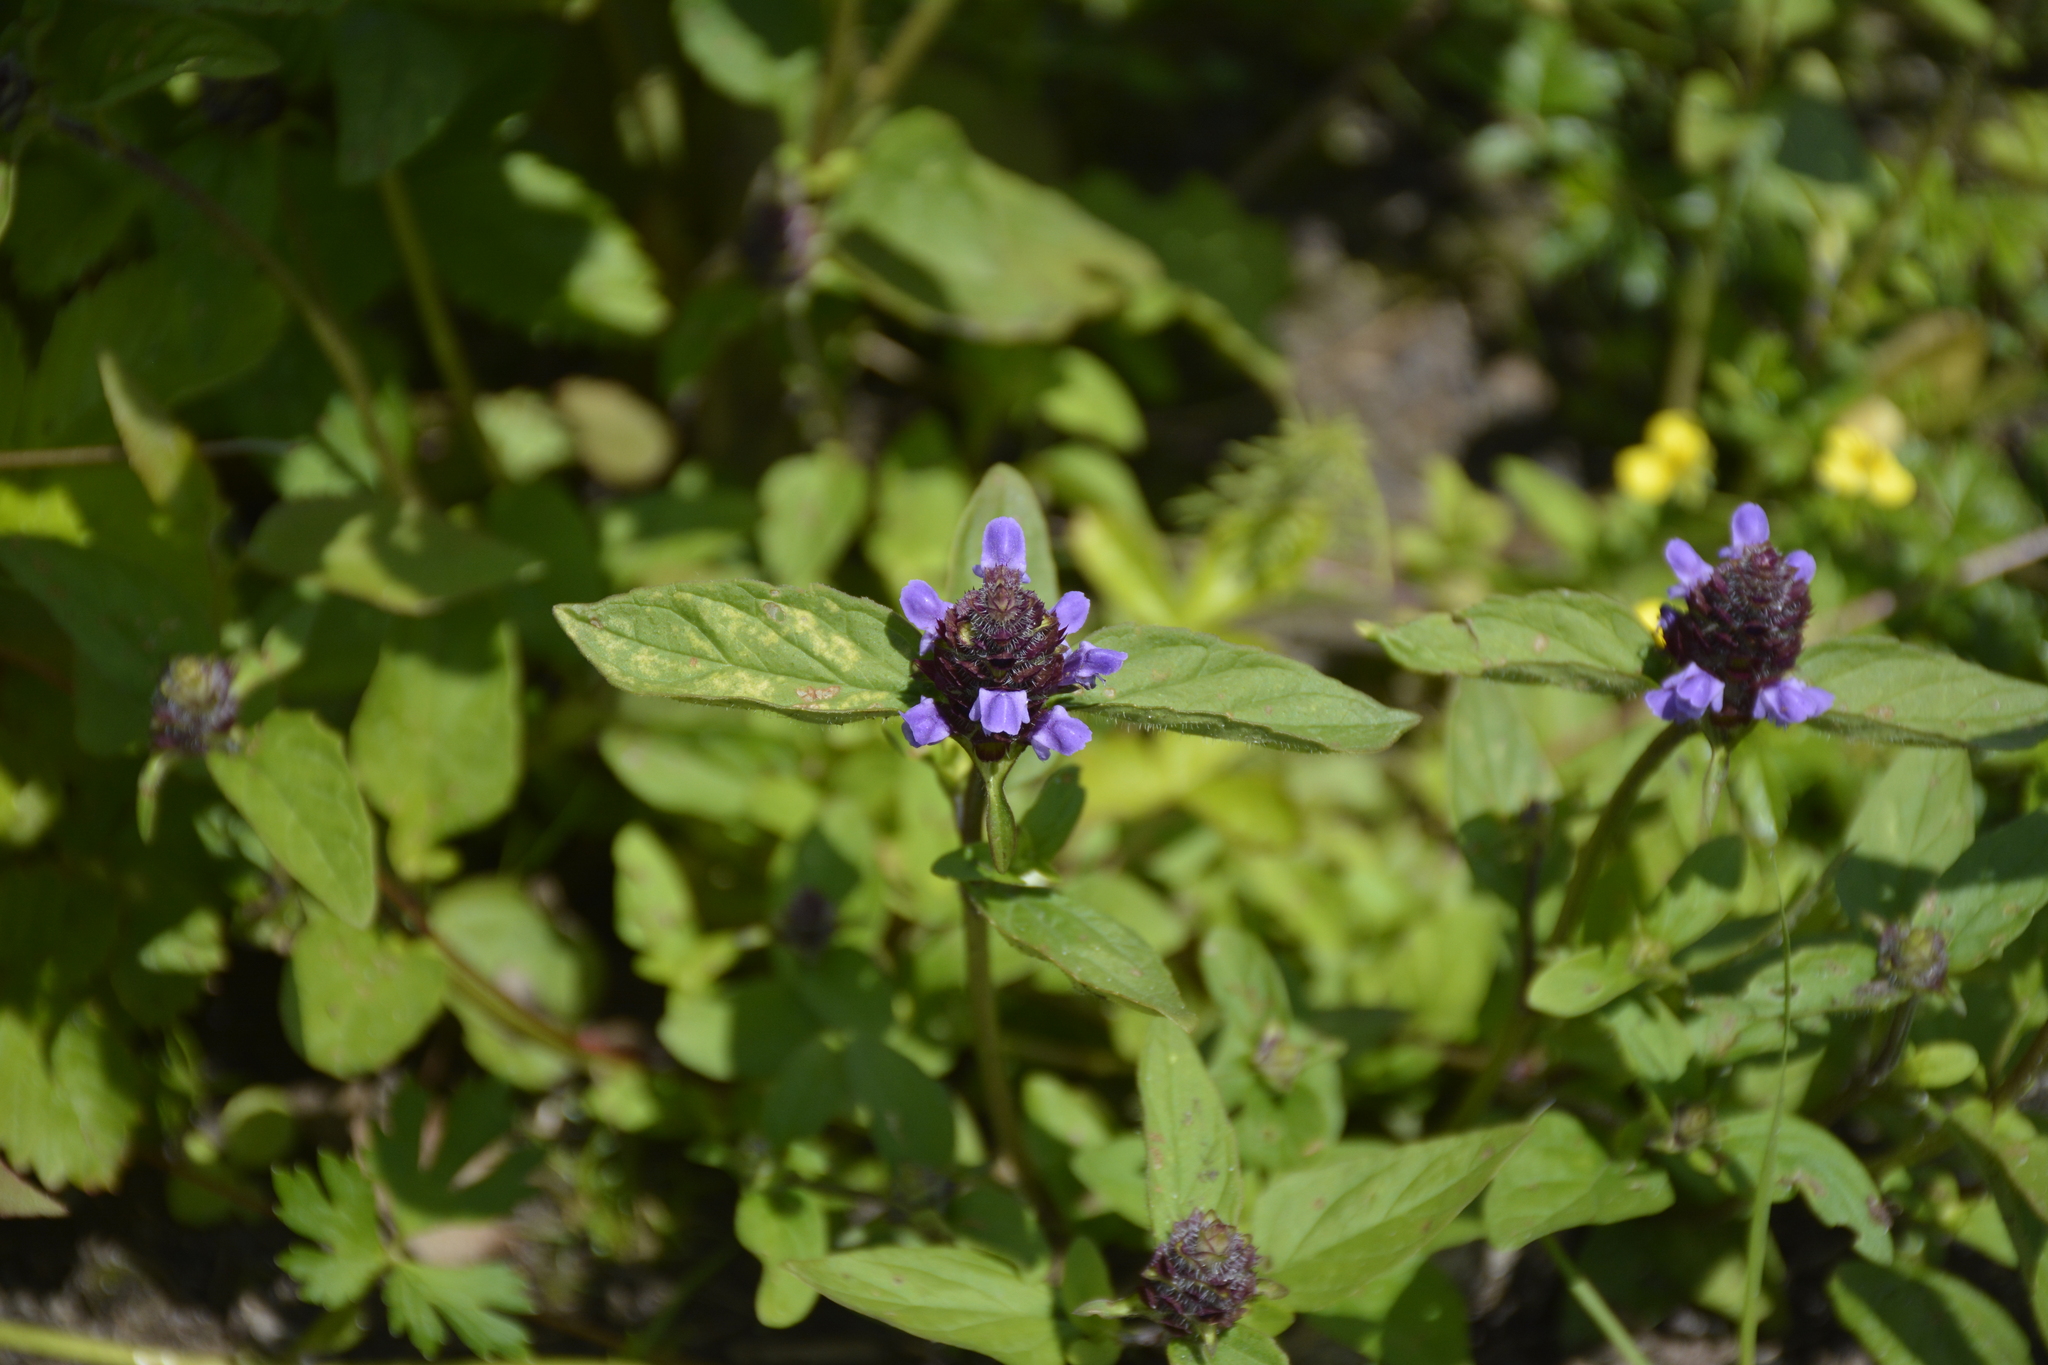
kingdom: Plantae
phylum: Tracheophyta
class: Magnoliopsida
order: Lamiales
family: Lamiaceae
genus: Prunella
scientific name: Prunella vulgaris
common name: Heal-all
